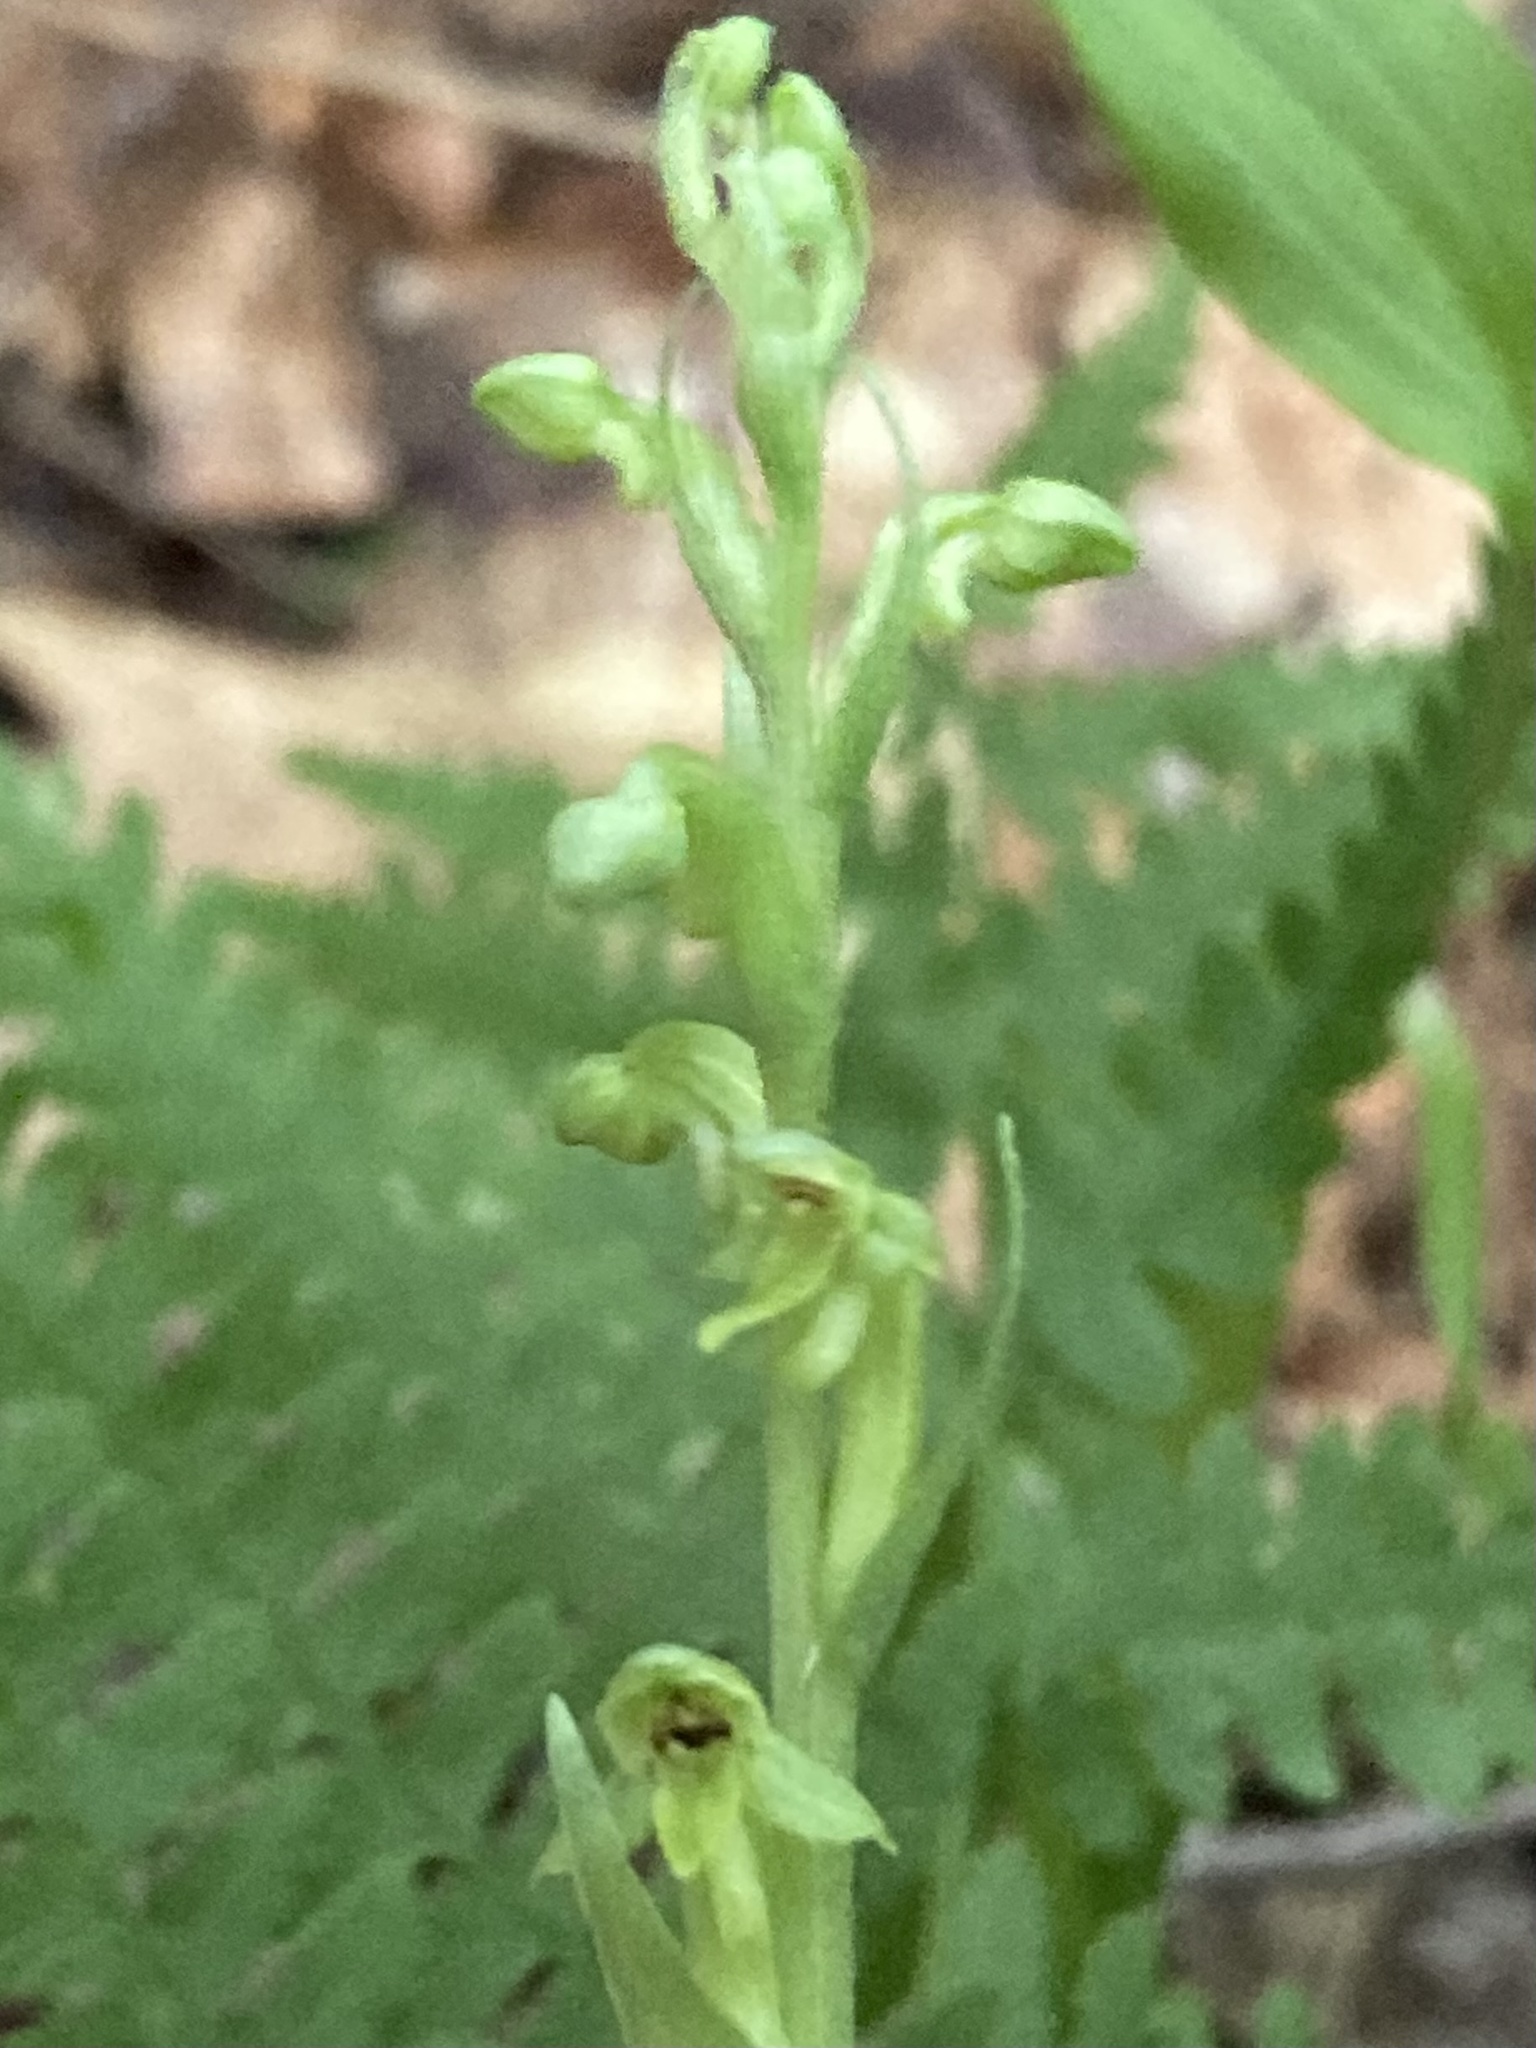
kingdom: Plantae
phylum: Tracheophyta
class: Liliopsida
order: Asparagales
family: Orchidaceae
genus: Platanthera
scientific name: Platanthera aquilonis
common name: Northern green orchid
